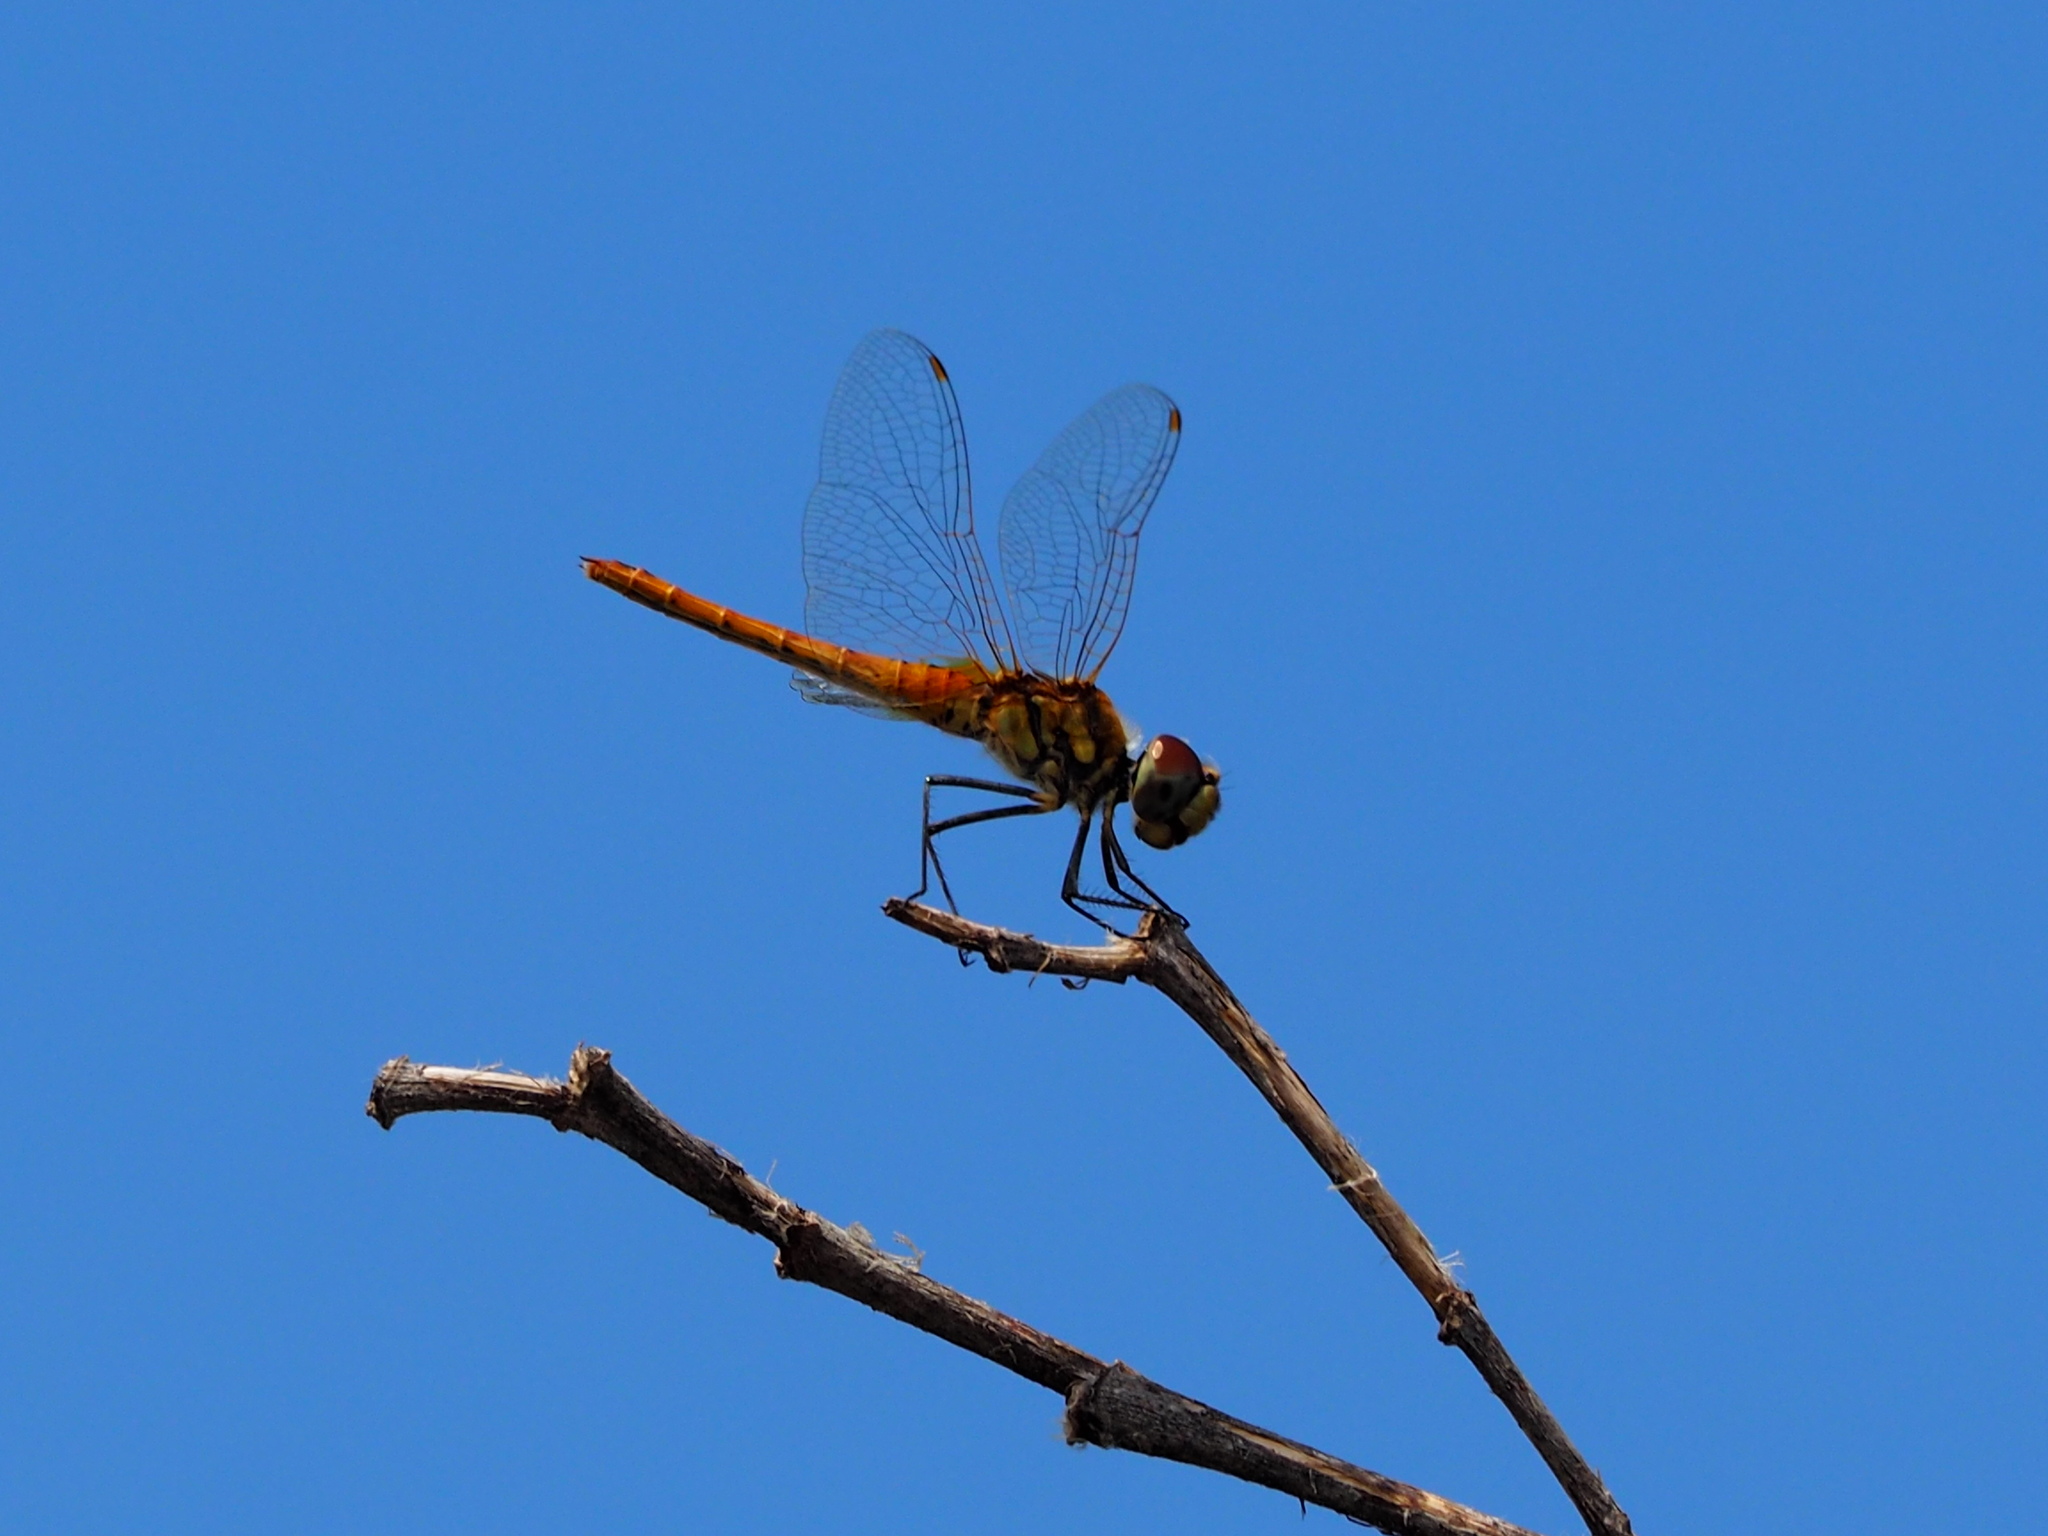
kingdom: Animalia
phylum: Arthropoda
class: Insecta
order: Odonata
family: Libellulidae
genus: Macrodiplax
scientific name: Macrodiplax cora
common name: Coastal glider
